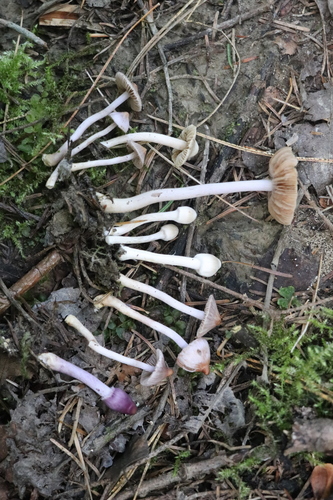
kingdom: Fungi
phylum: Basidiomycota
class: Agaricomycetes
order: Agaricales
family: Inocybaceae
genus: Inocybe
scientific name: Inocybe geophylla
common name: White fibrecap
